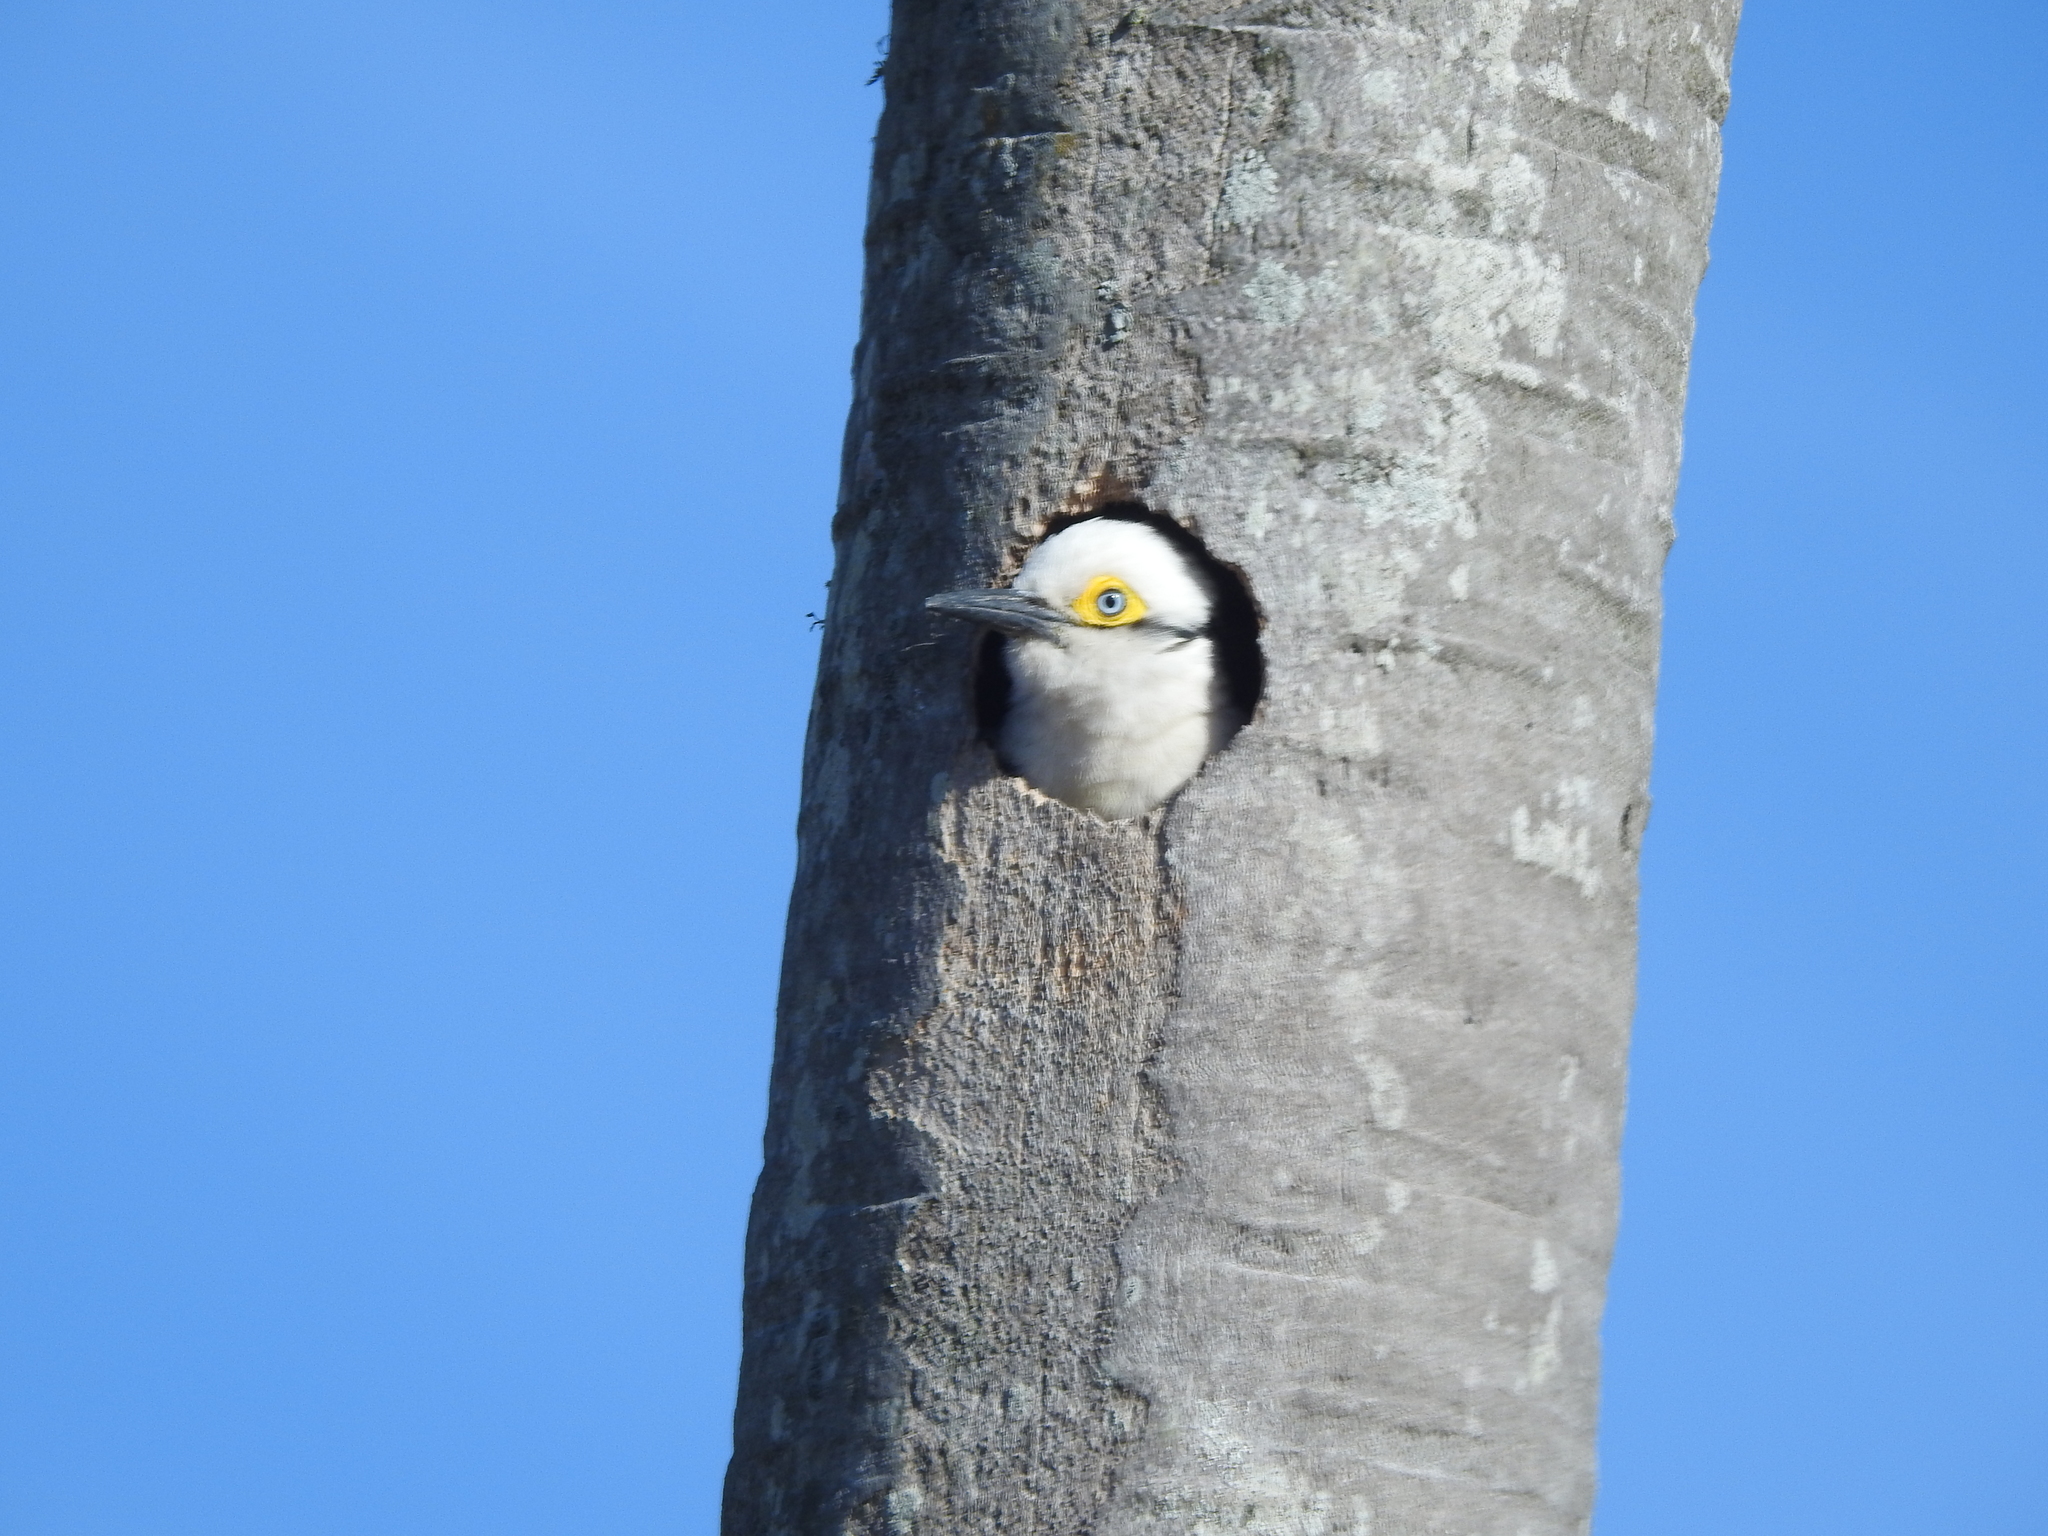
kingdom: Animalia
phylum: Chordata
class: Aves
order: Piciformes
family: Picidae
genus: Melanerpes
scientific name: Melanerpes candidus
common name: White woodpecker
